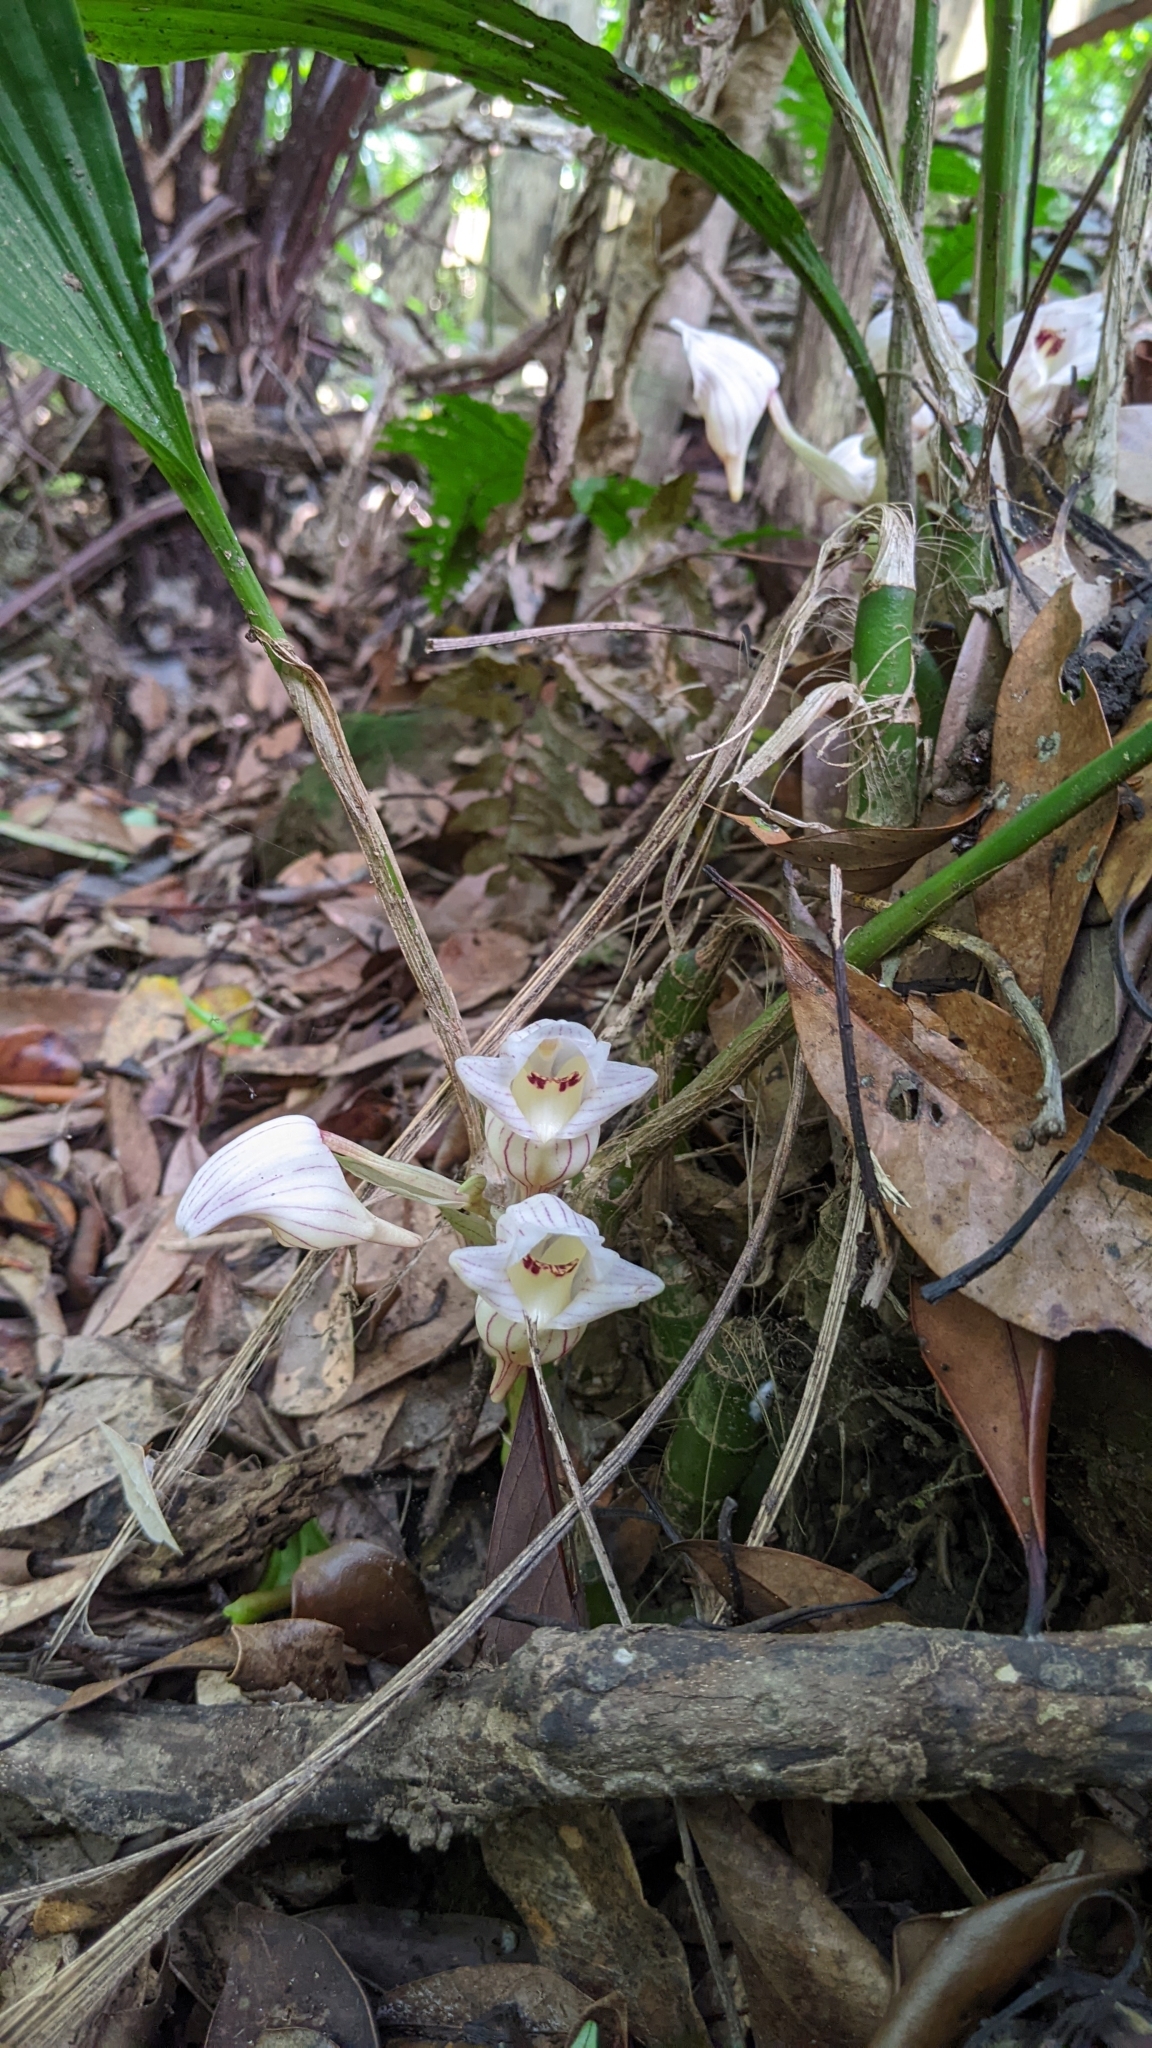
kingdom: Plantae
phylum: Tracheophyta
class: Liliopsida
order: Asparagales
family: Orchidaceae
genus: Acanthophippium
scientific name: Acanthophippium striatum
